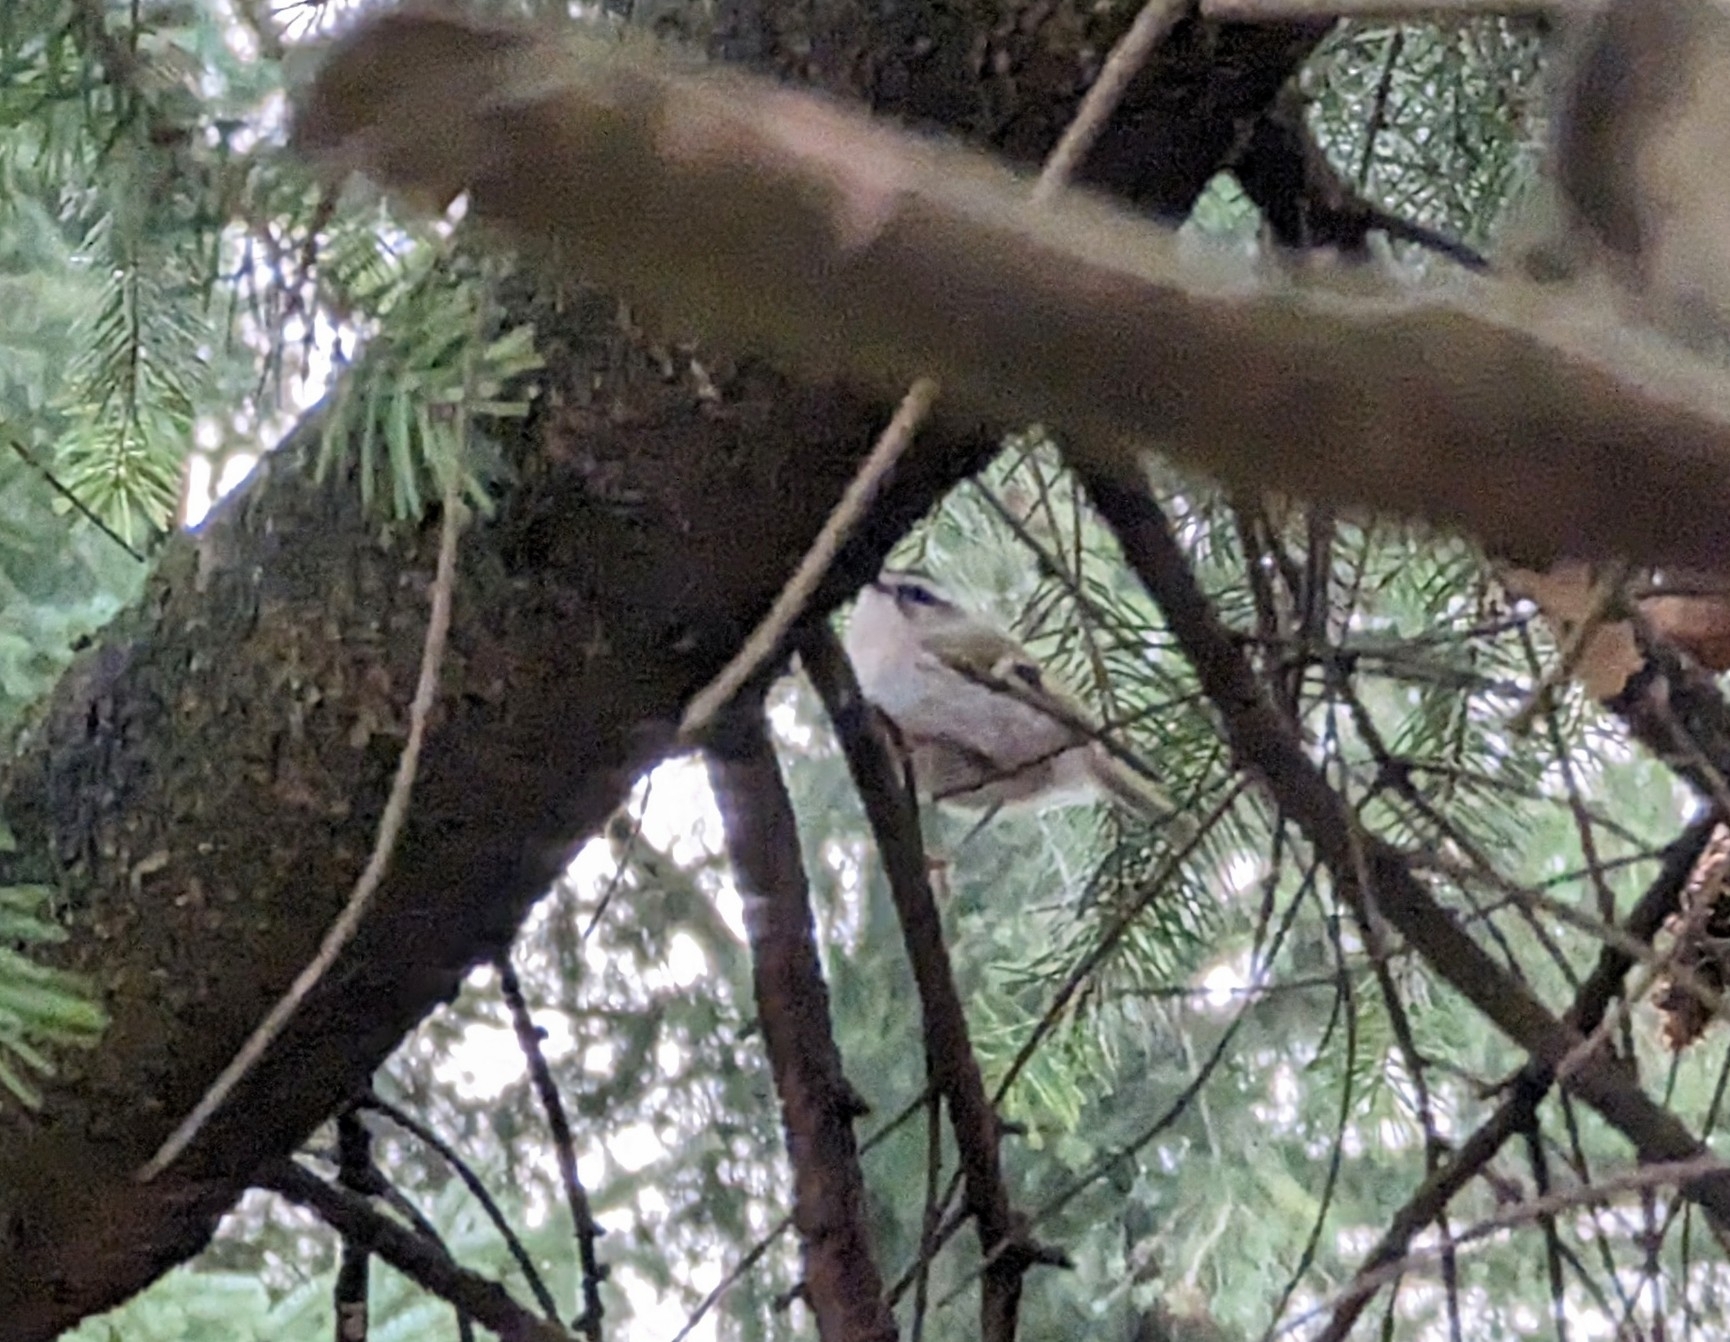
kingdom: Animalia
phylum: Chordata
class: Aves
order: Passeriformes
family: Regulidae
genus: Regulus
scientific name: Regulus satrapa
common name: Golden-crowned kinglet
